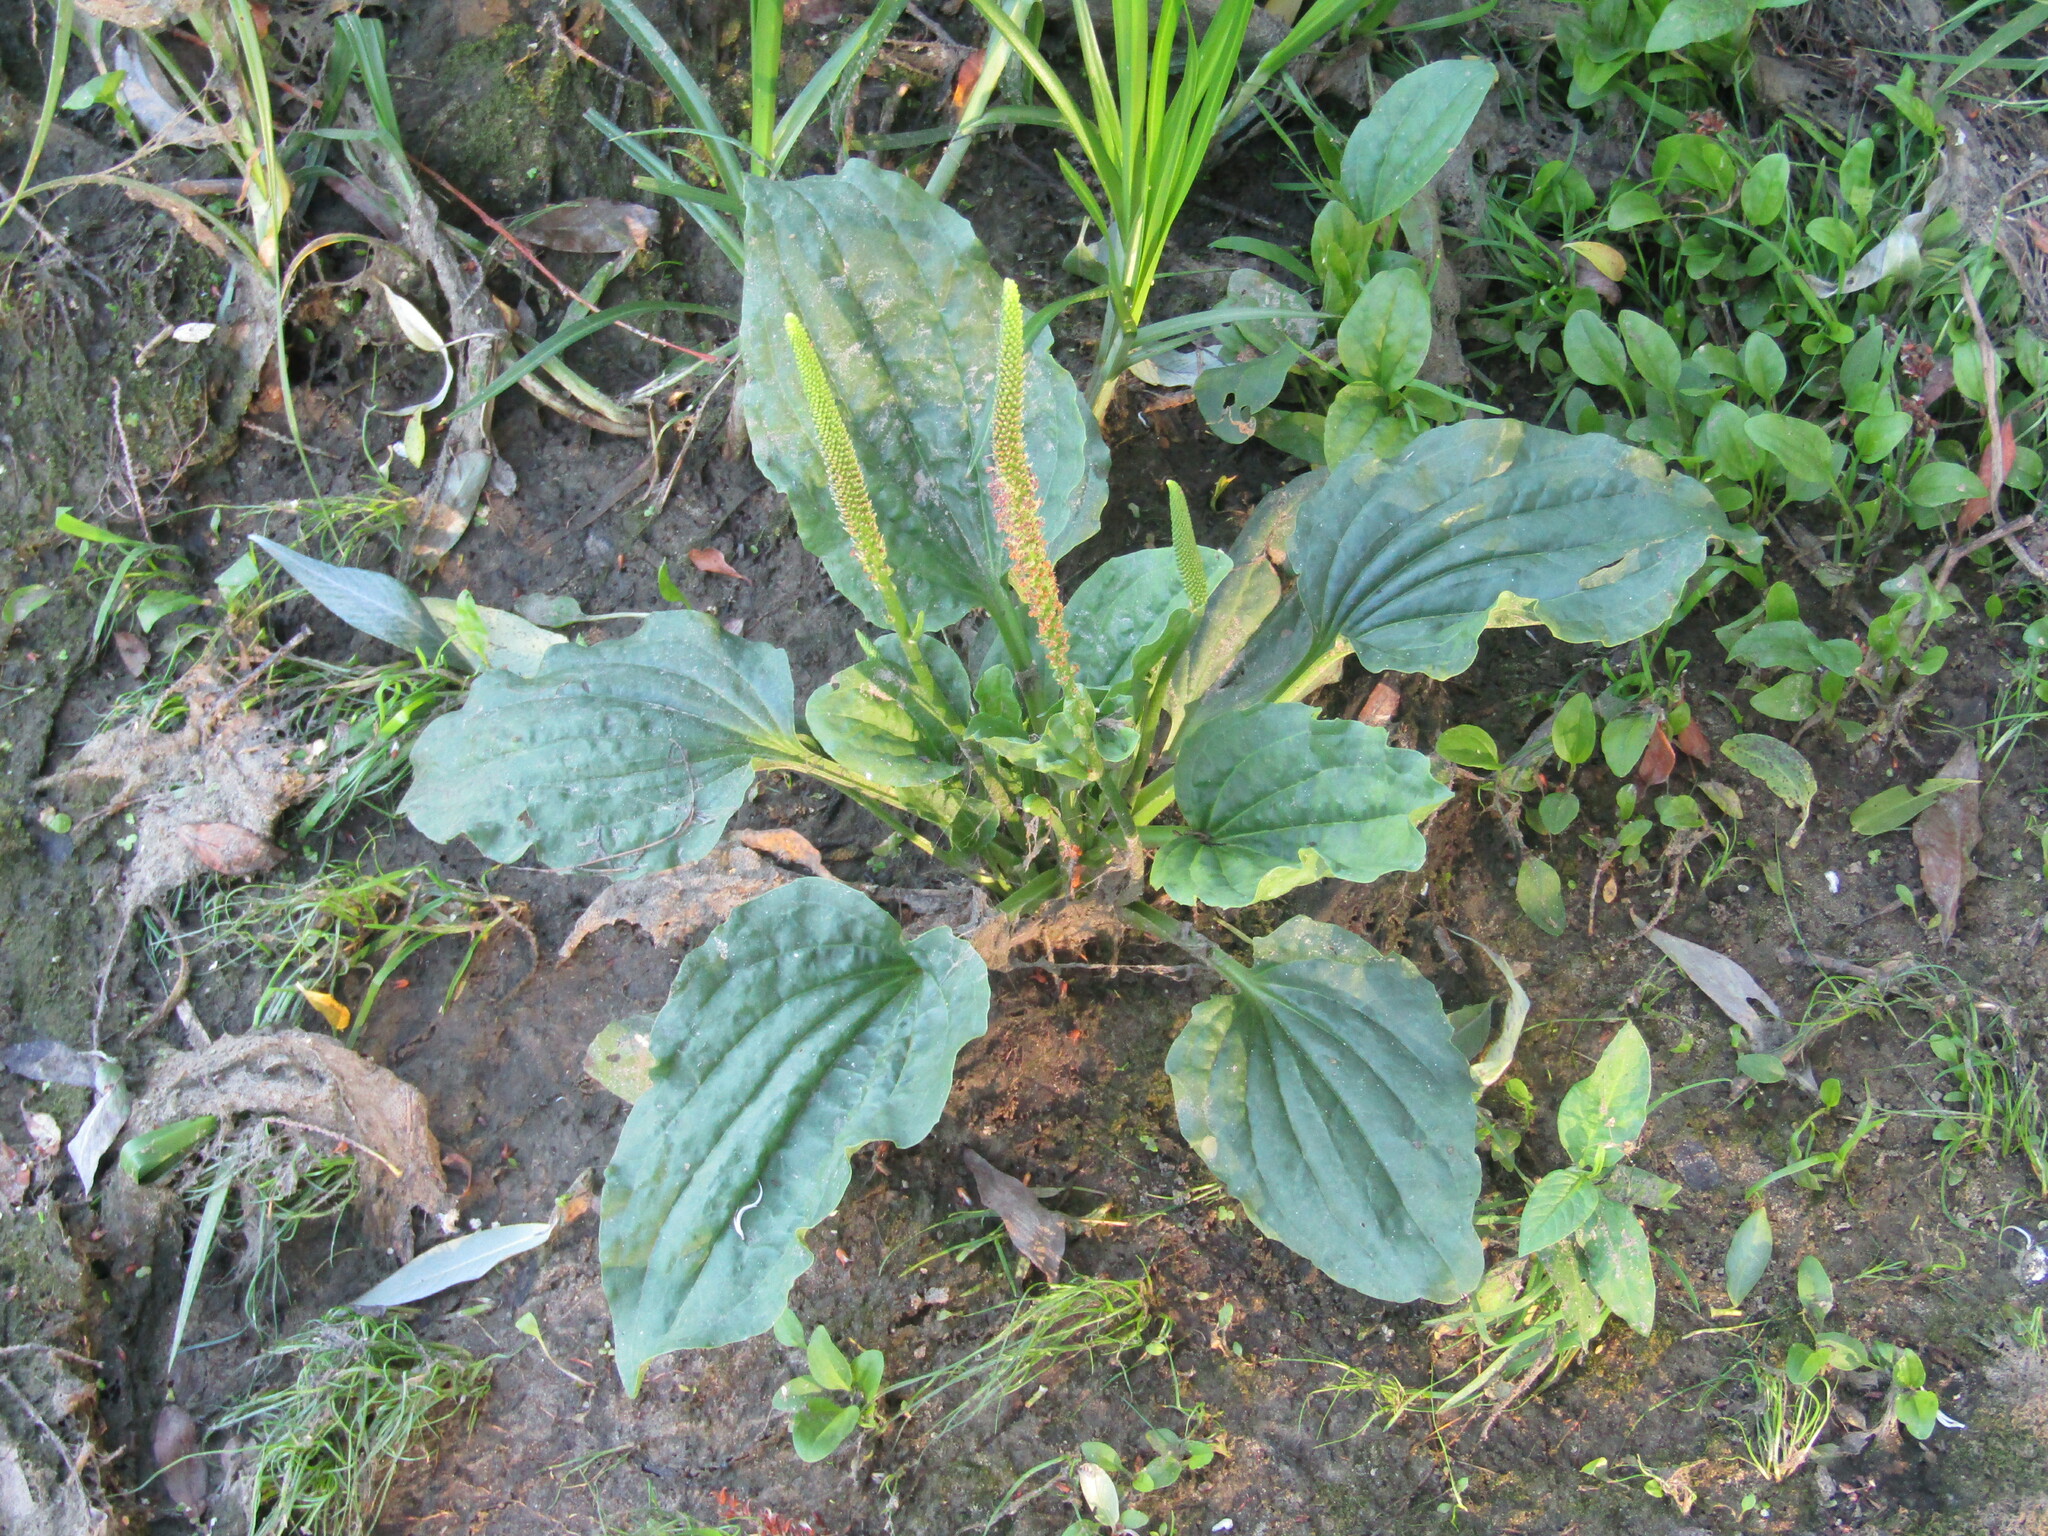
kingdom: Plantae
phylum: Tracheophyta
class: Magnoliopsida
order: Lamiales
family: Plantaginaceae
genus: Plantago
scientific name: Plantago major
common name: Common plantain
